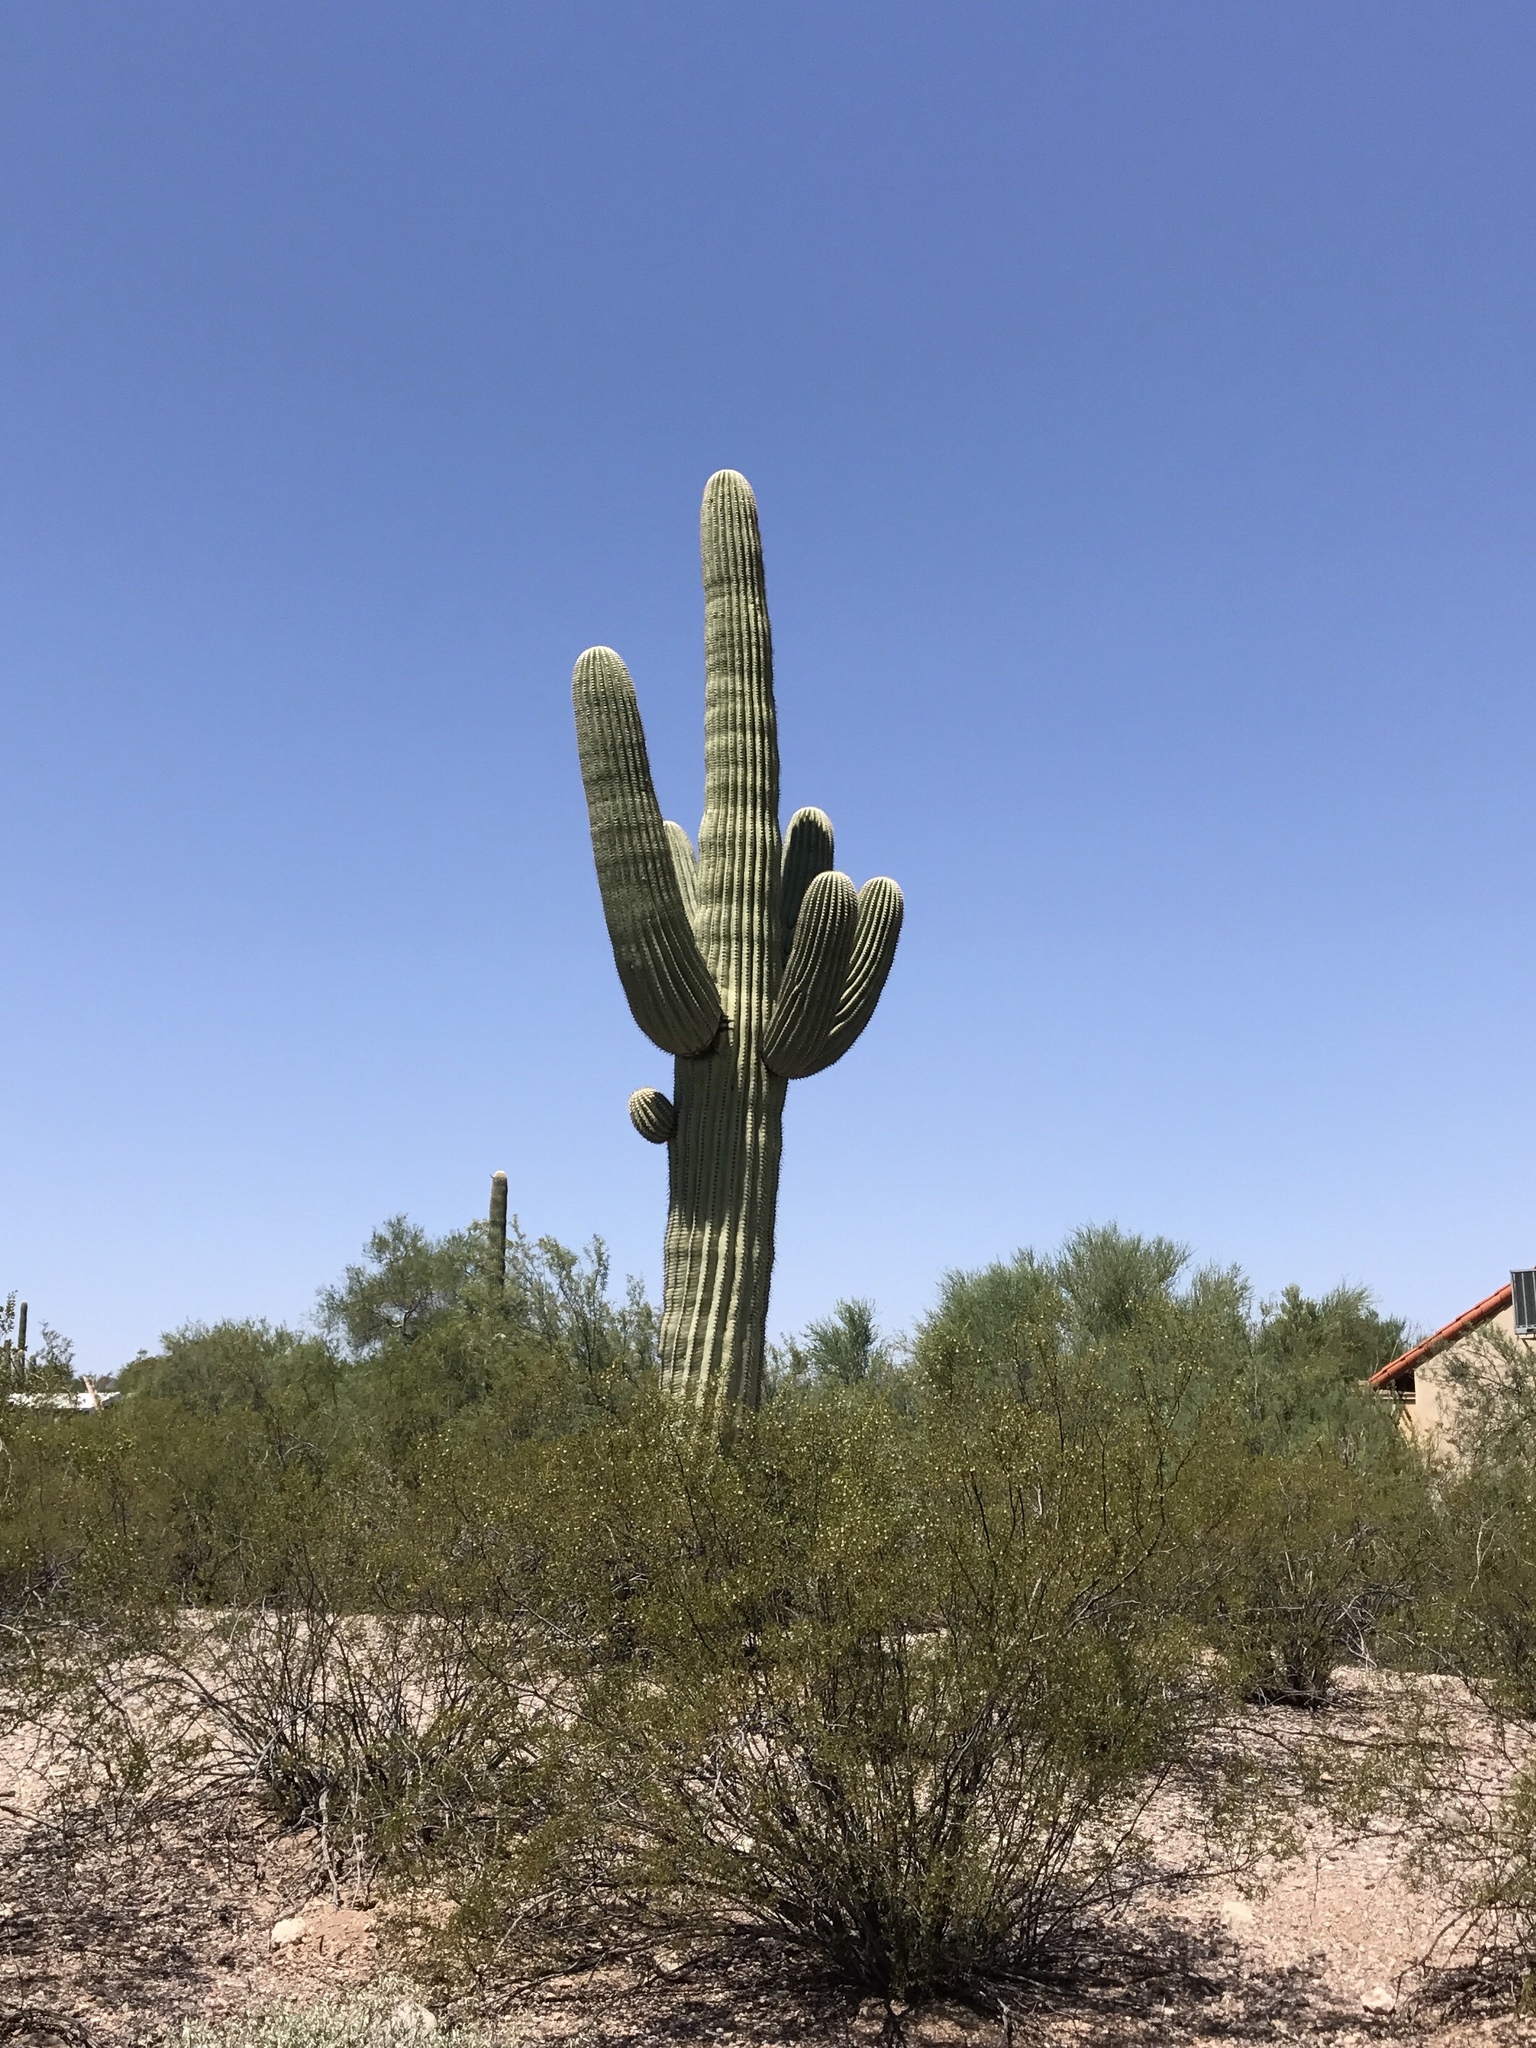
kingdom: Plantae
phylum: Tracheophyta
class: Magnoliopsida
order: Caryophyllales
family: Cactaceae
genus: Carnegiea
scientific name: Carnegiea gigantea
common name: Saguaro
